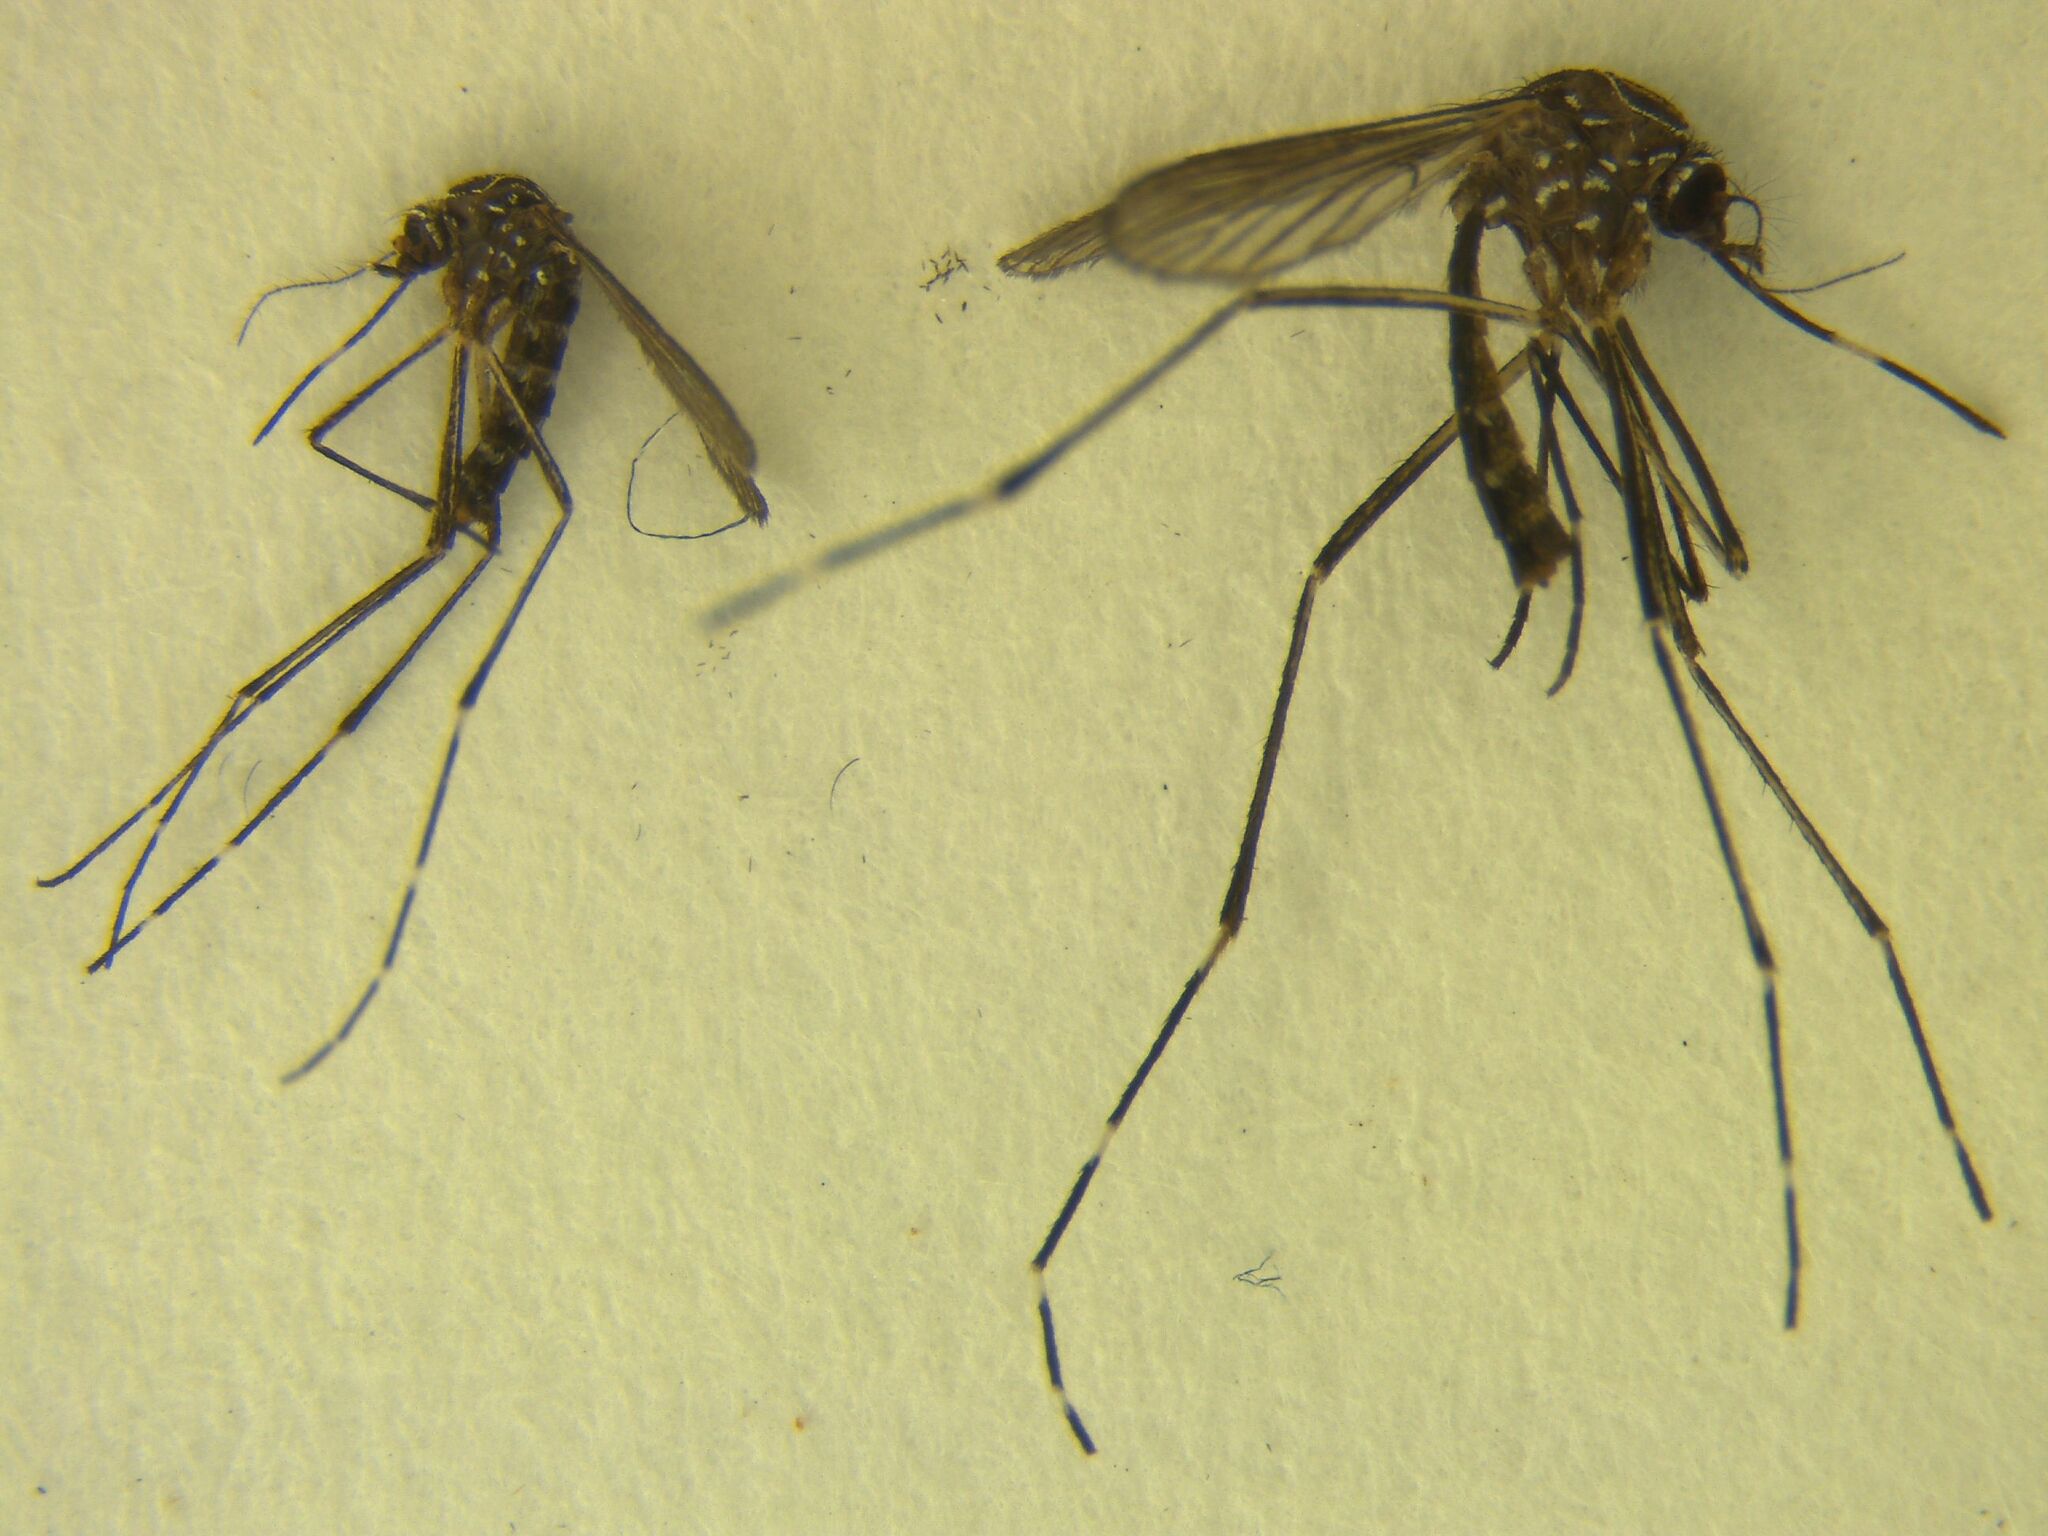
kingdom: Animalia
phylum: Arthropoda
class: Insecta
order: Diptera
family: Culicidae
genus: Aedes
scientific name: Aedes notoscriptus
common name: Australian backyard mosquito
